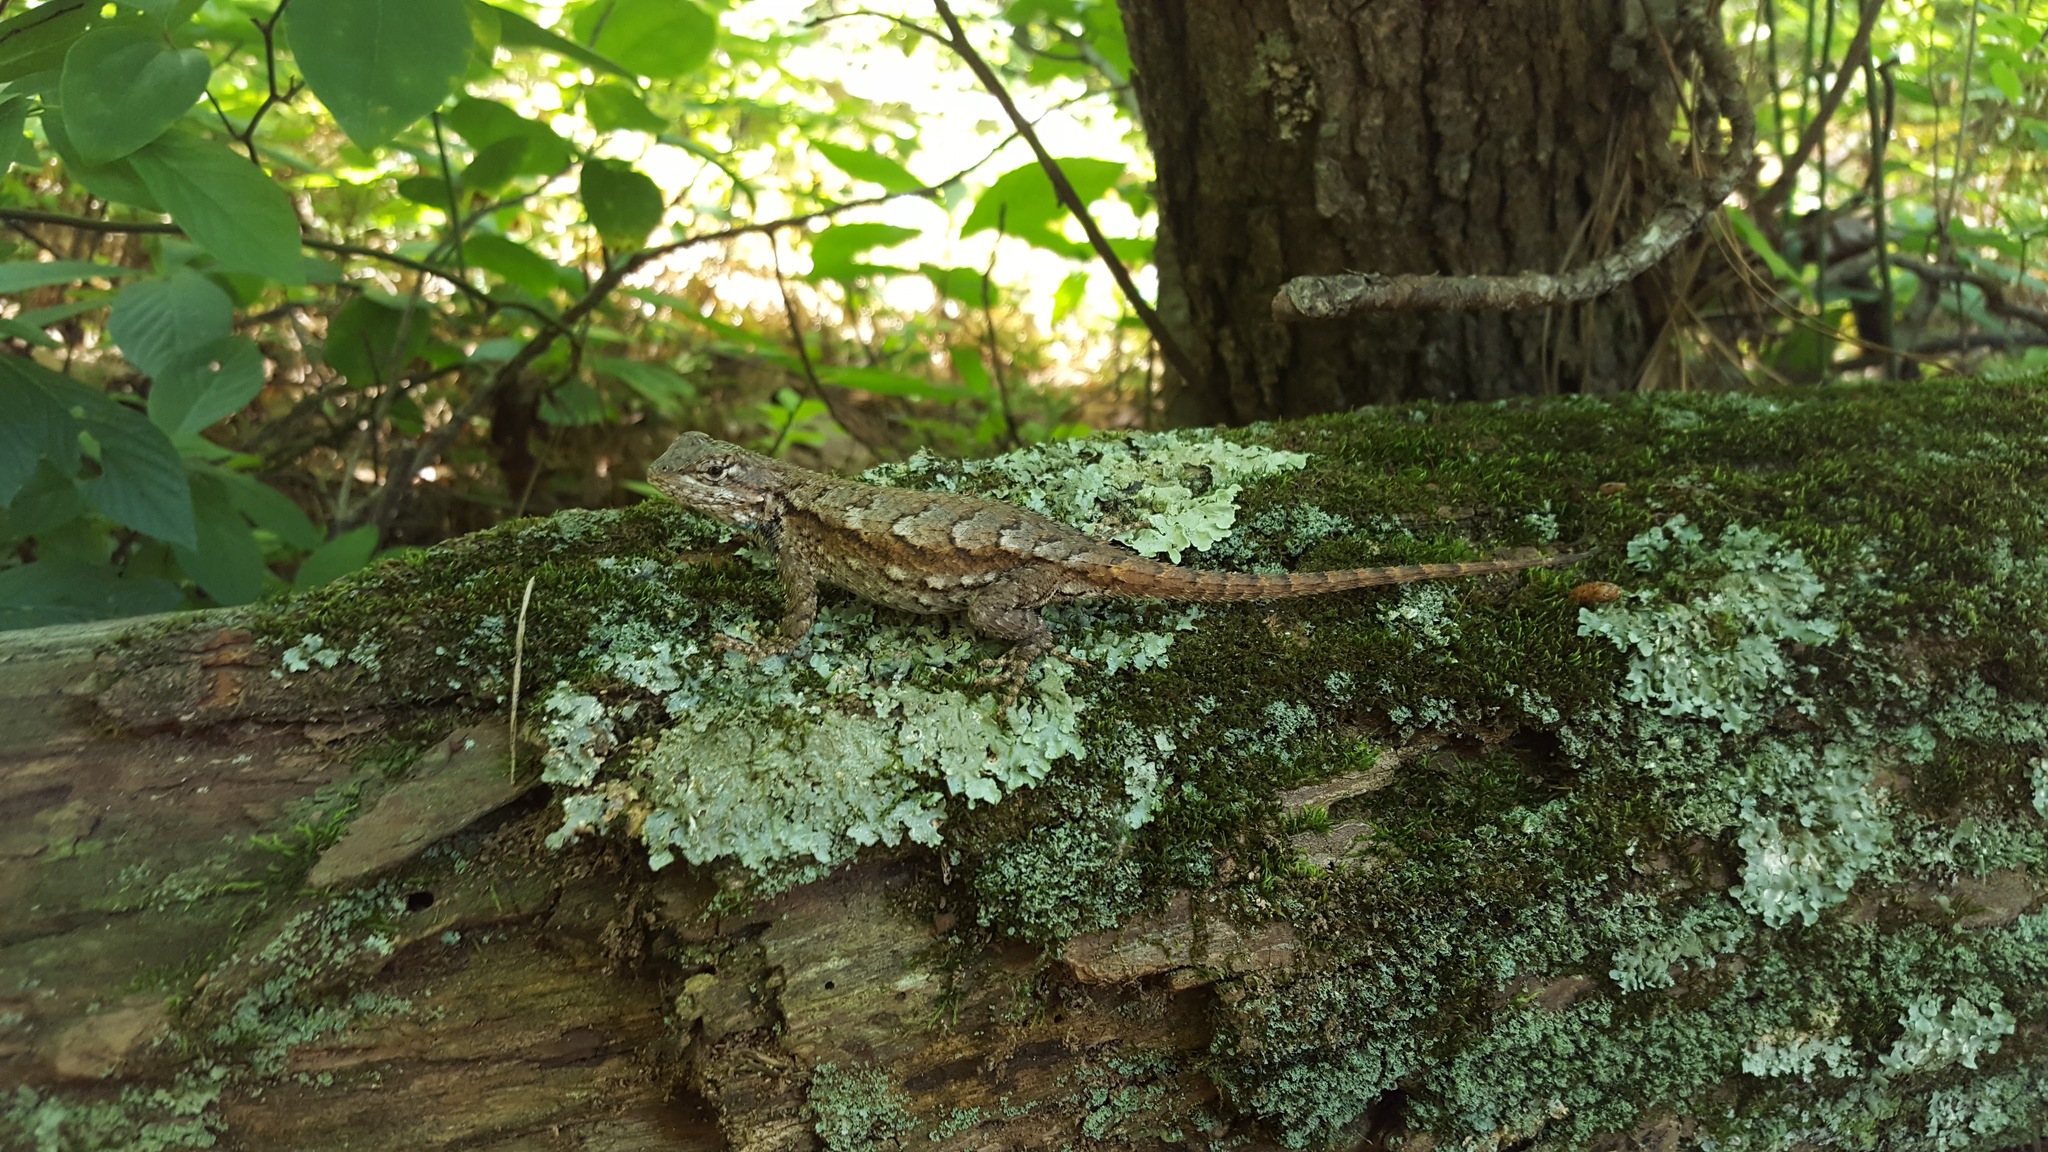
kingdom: Animalia
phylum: Chordata
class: Squamata
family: Phrynosomatidae
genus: Sceloporus
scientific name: Sceloporus undulatus
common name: Eastern fence lizard
